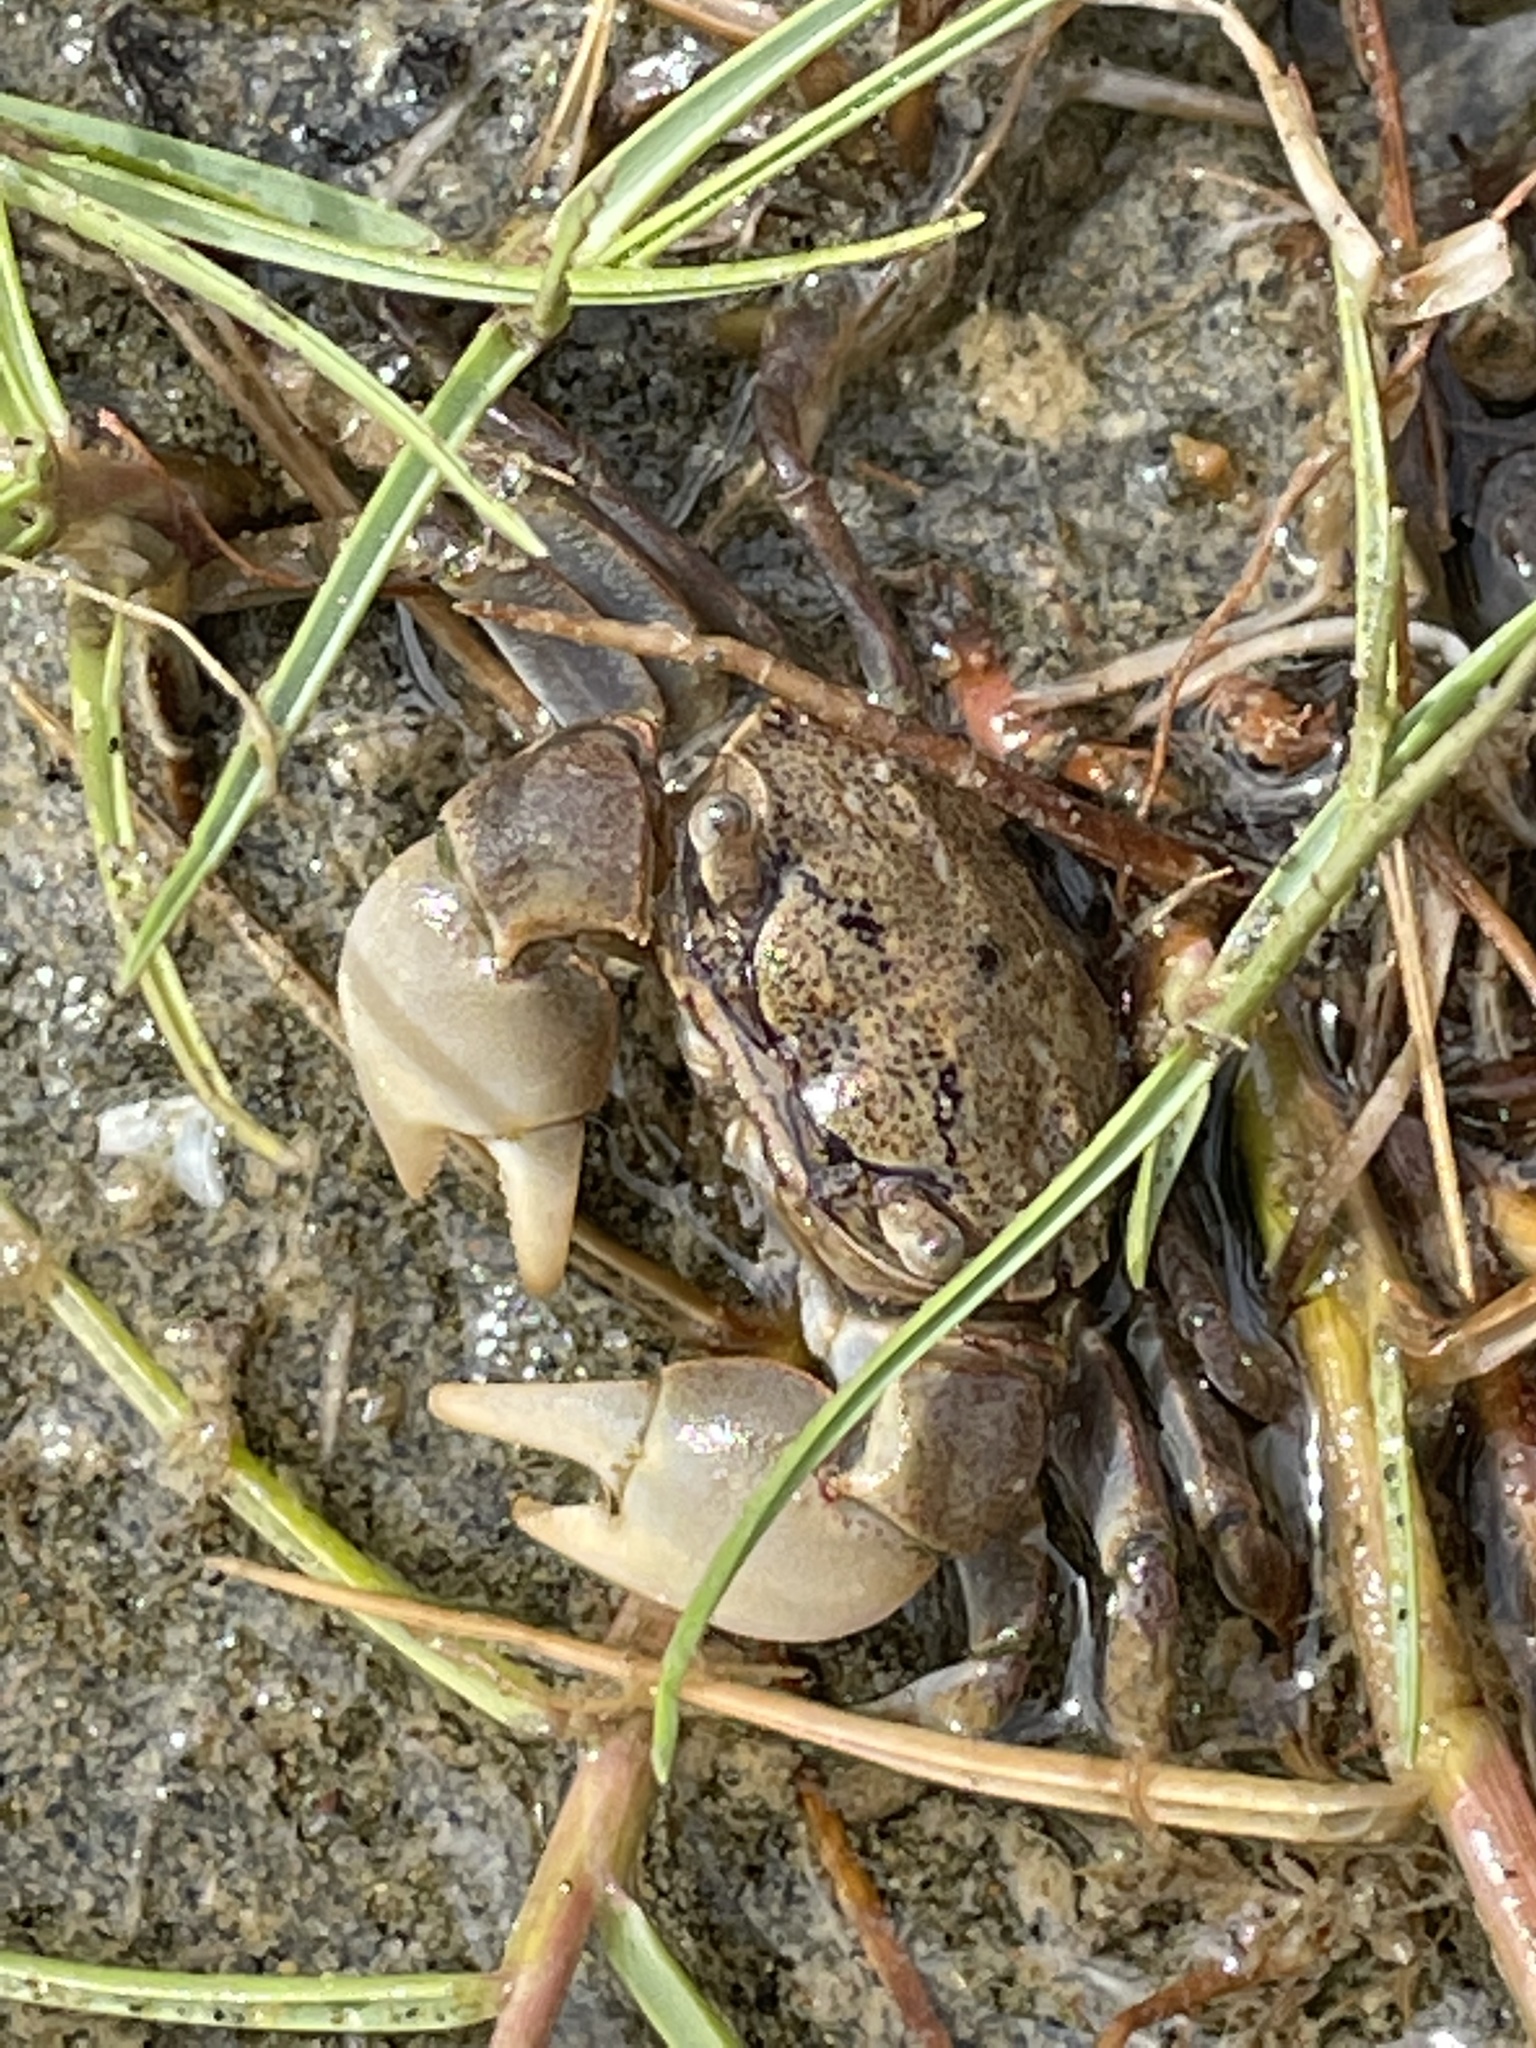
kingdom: Animalia
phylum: Arthropoda
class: Malacostraca
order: Decapoda
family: Varunidae
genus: Austrohelice
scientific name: Austrohelice crassa
